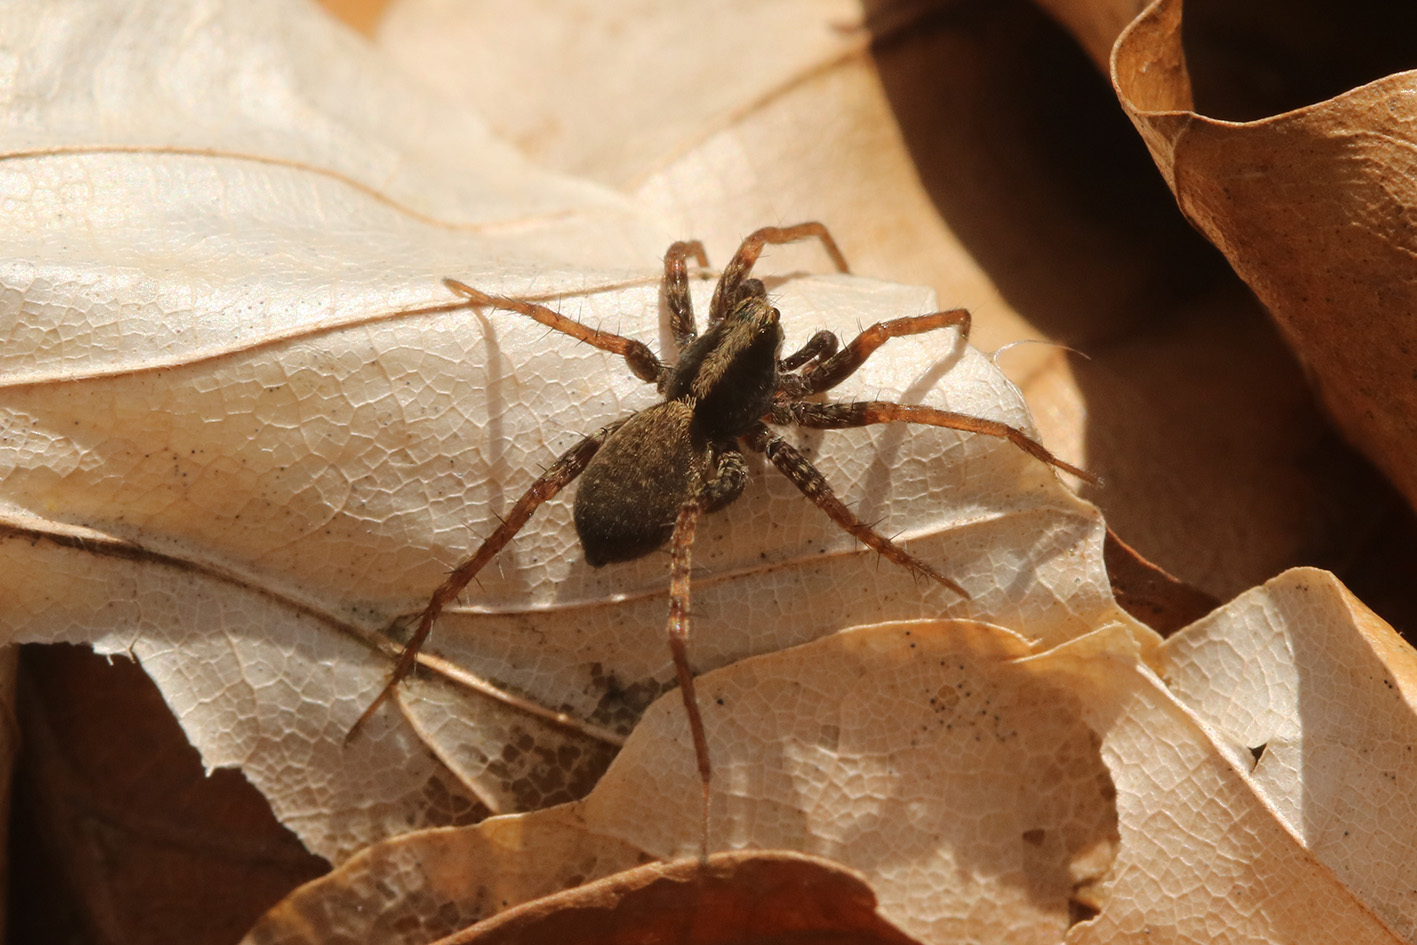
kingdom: Animalia
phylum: Arthropoda
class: Arachnida
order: Araneae
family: Lycosidae
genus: Pardosa
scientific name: Pardosa
